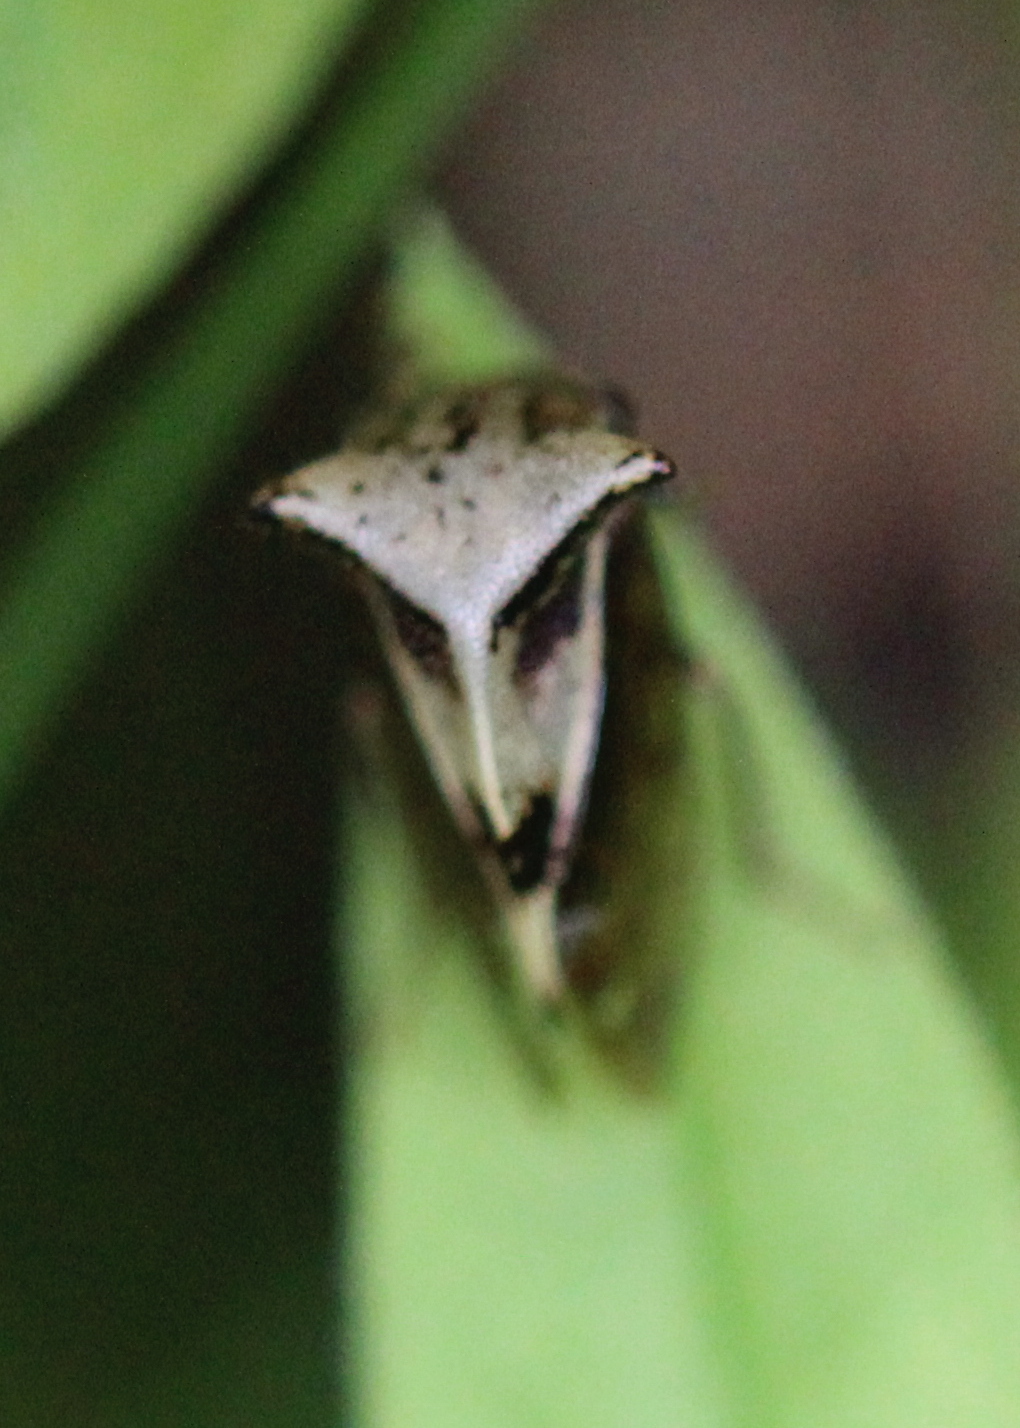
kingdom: Animalia
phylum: Arthropoda
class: Insecta
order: Hemiptera
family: Membracidae
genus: Stictocephala
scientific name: Stictocephala diceros
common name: Two-horned treehopper
